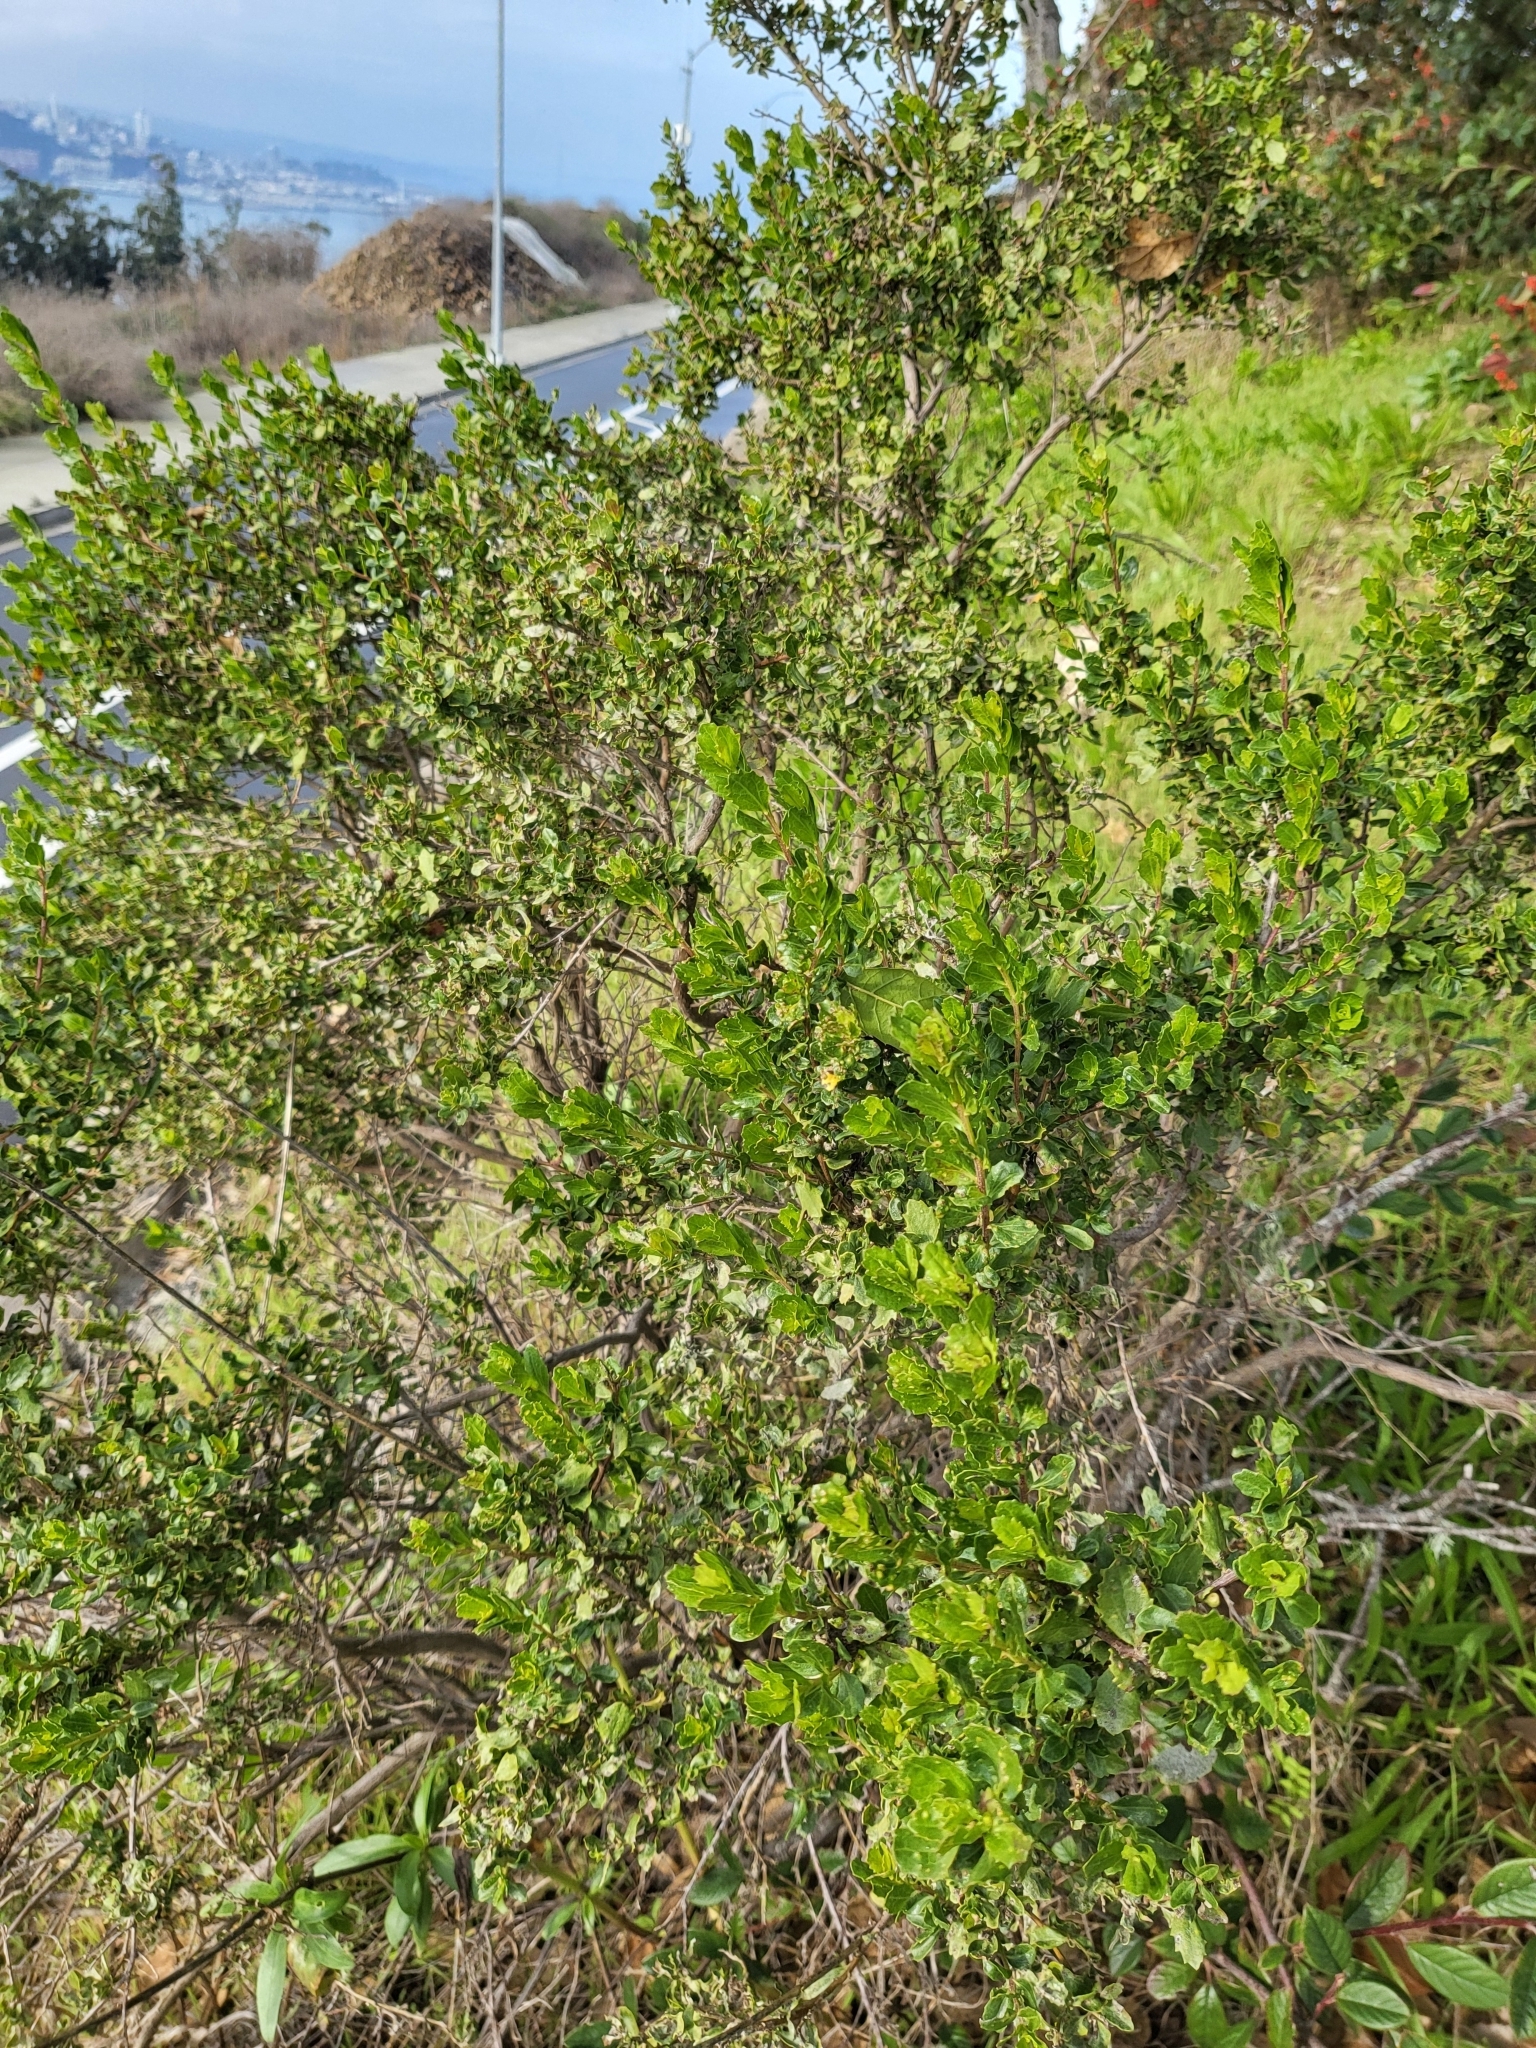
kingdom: Plantae
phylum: Tracheophyta
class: Magnoliopsida
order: Asterales
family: Asteraceae
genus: Baccharis
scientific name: Baccharis pilularis
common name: Coyotebrush
